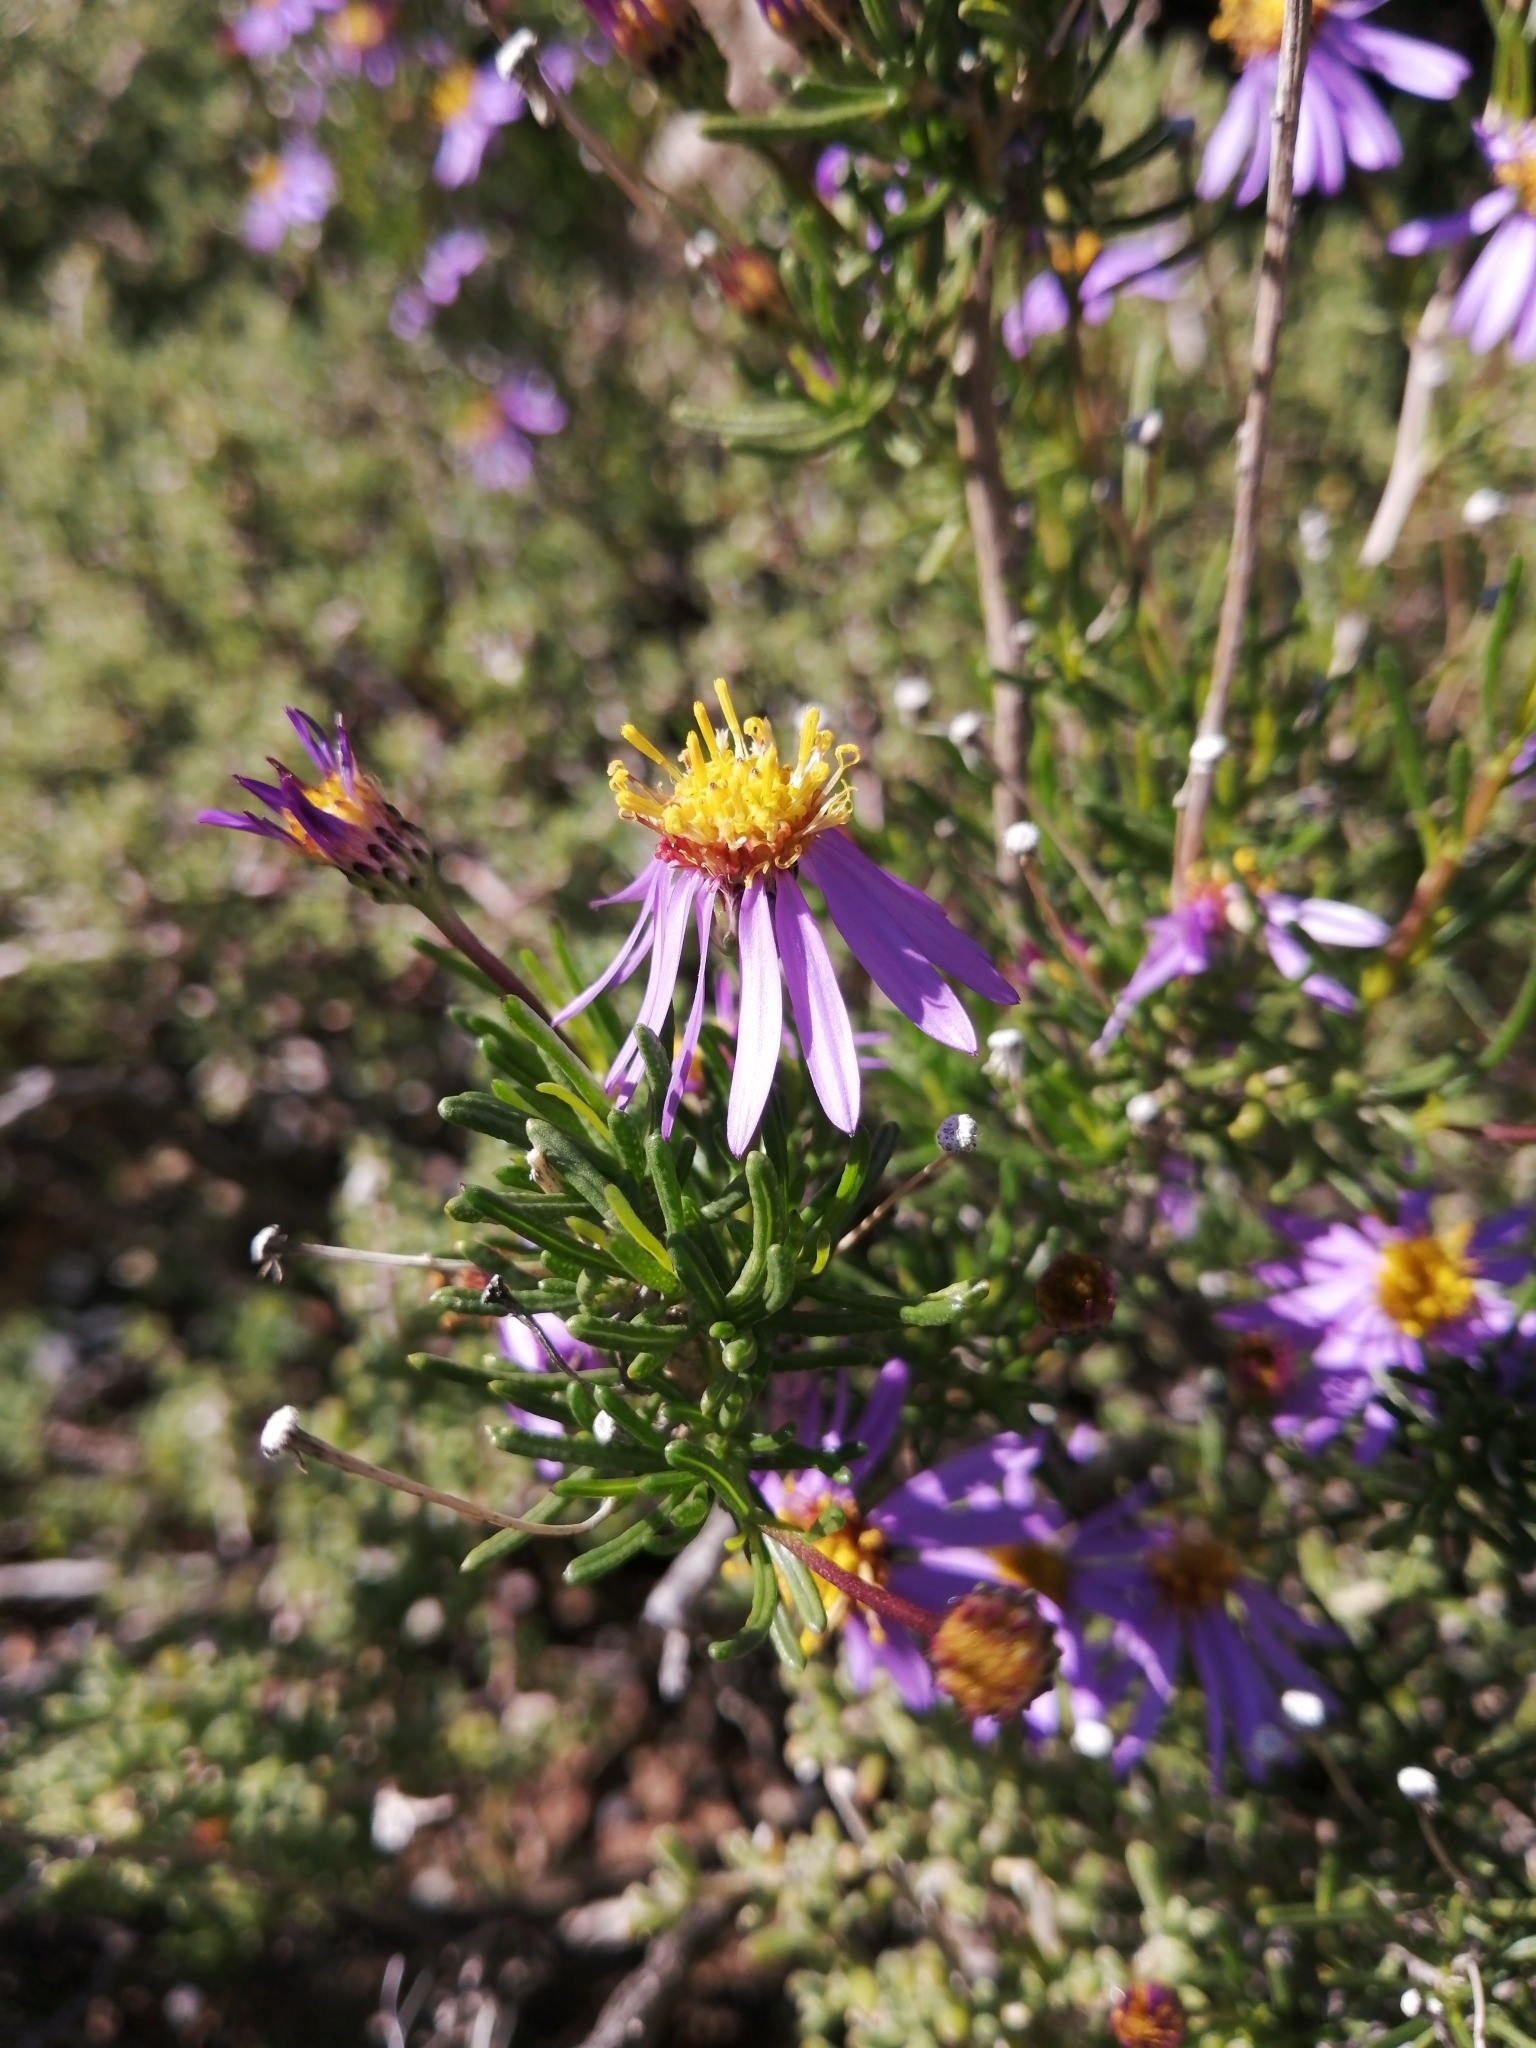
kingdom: Plantae
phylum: Tracheophyta
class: Magnoliopsida
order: Asterales
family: Asteraceae
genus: Felicia
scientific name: Felicia filifolia
